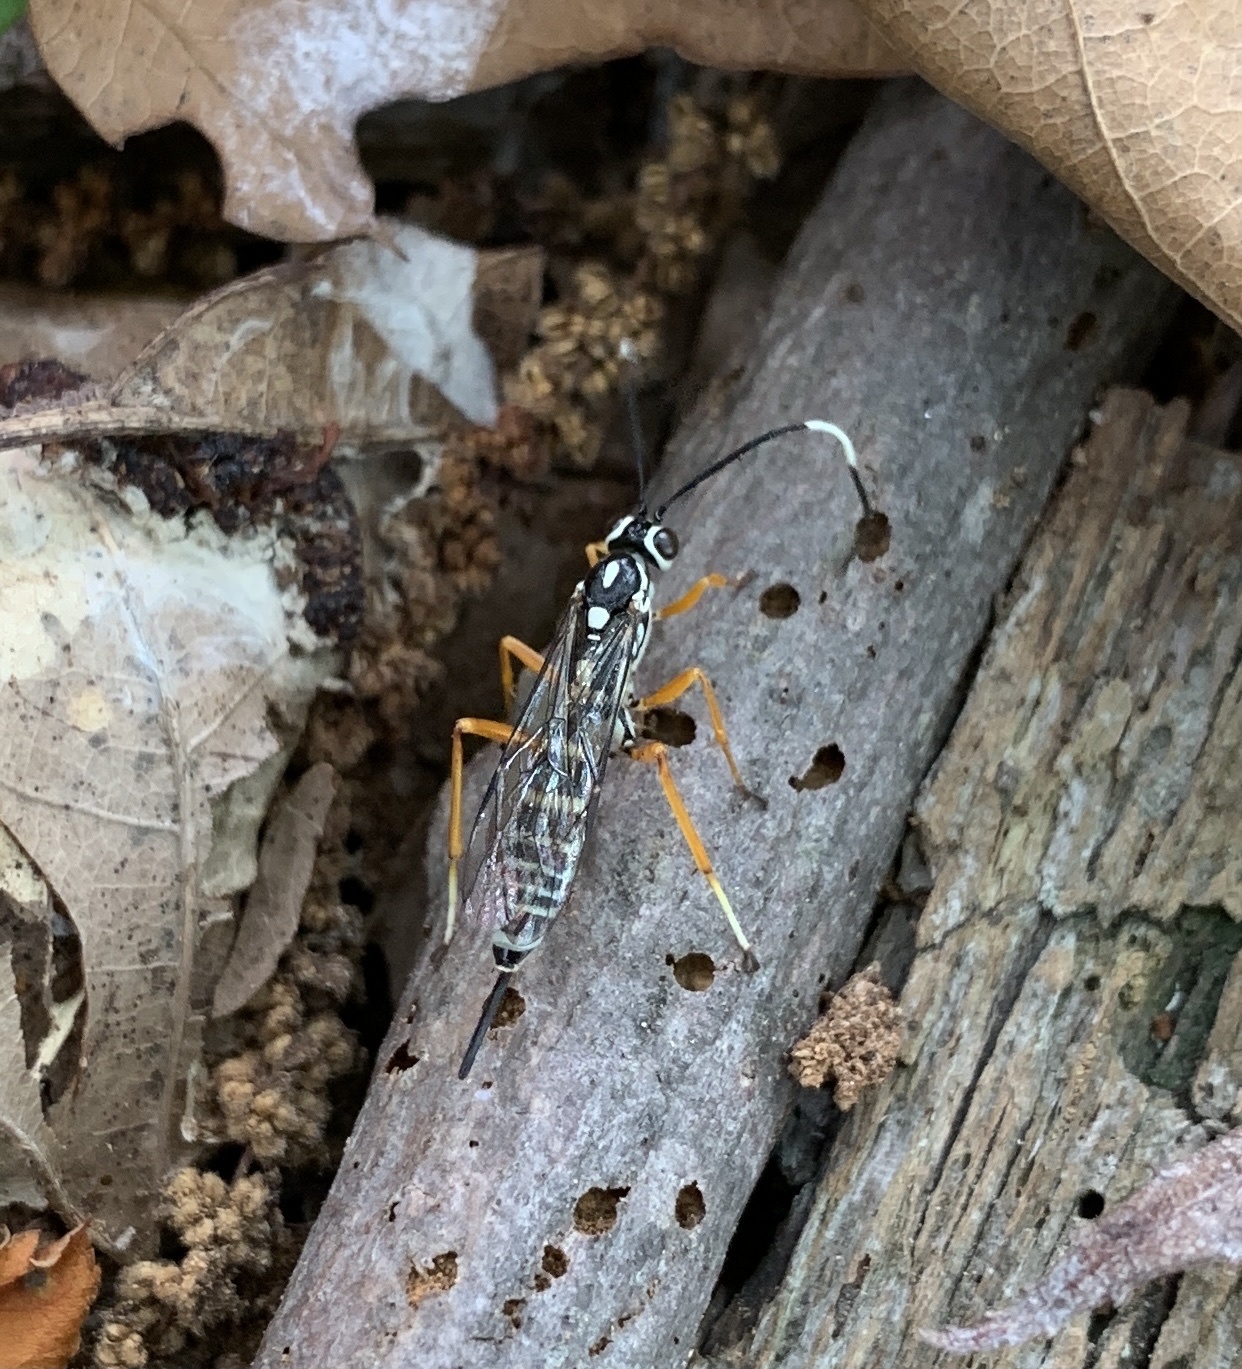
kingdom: Animalia
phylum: Arthropoda
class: Insecta
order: Hymenoptera
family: Ichneumonidae
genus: Agonocryptus
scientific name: Agonocryptus chichimecus
